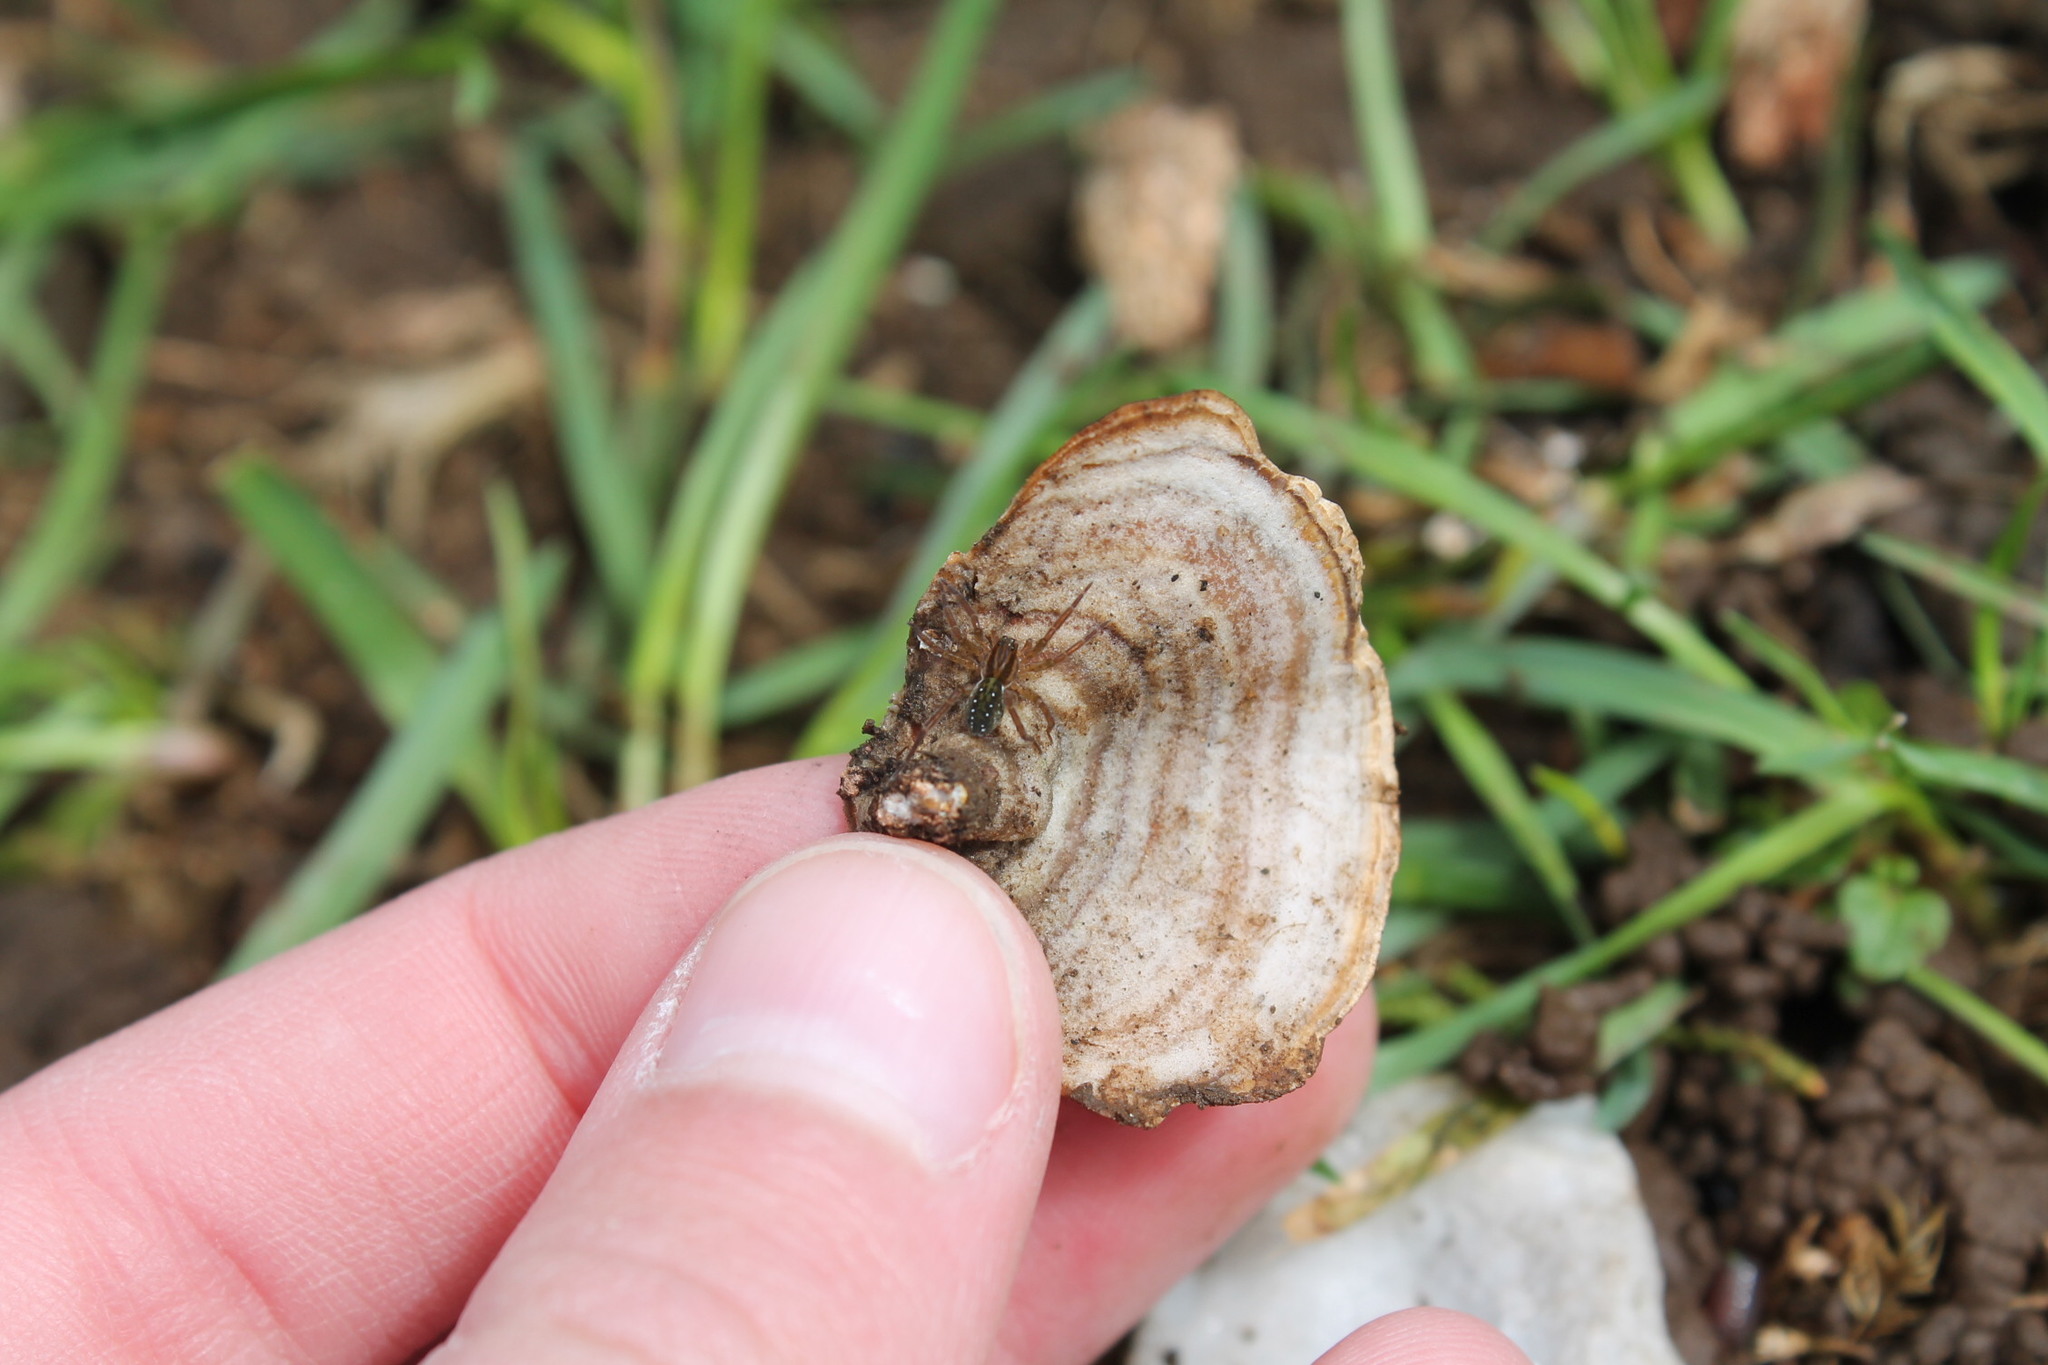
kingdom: Animalia
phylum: Arthropoda
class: Arachnida
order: Araneae
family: Lycosidae
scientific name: Lycosidae
